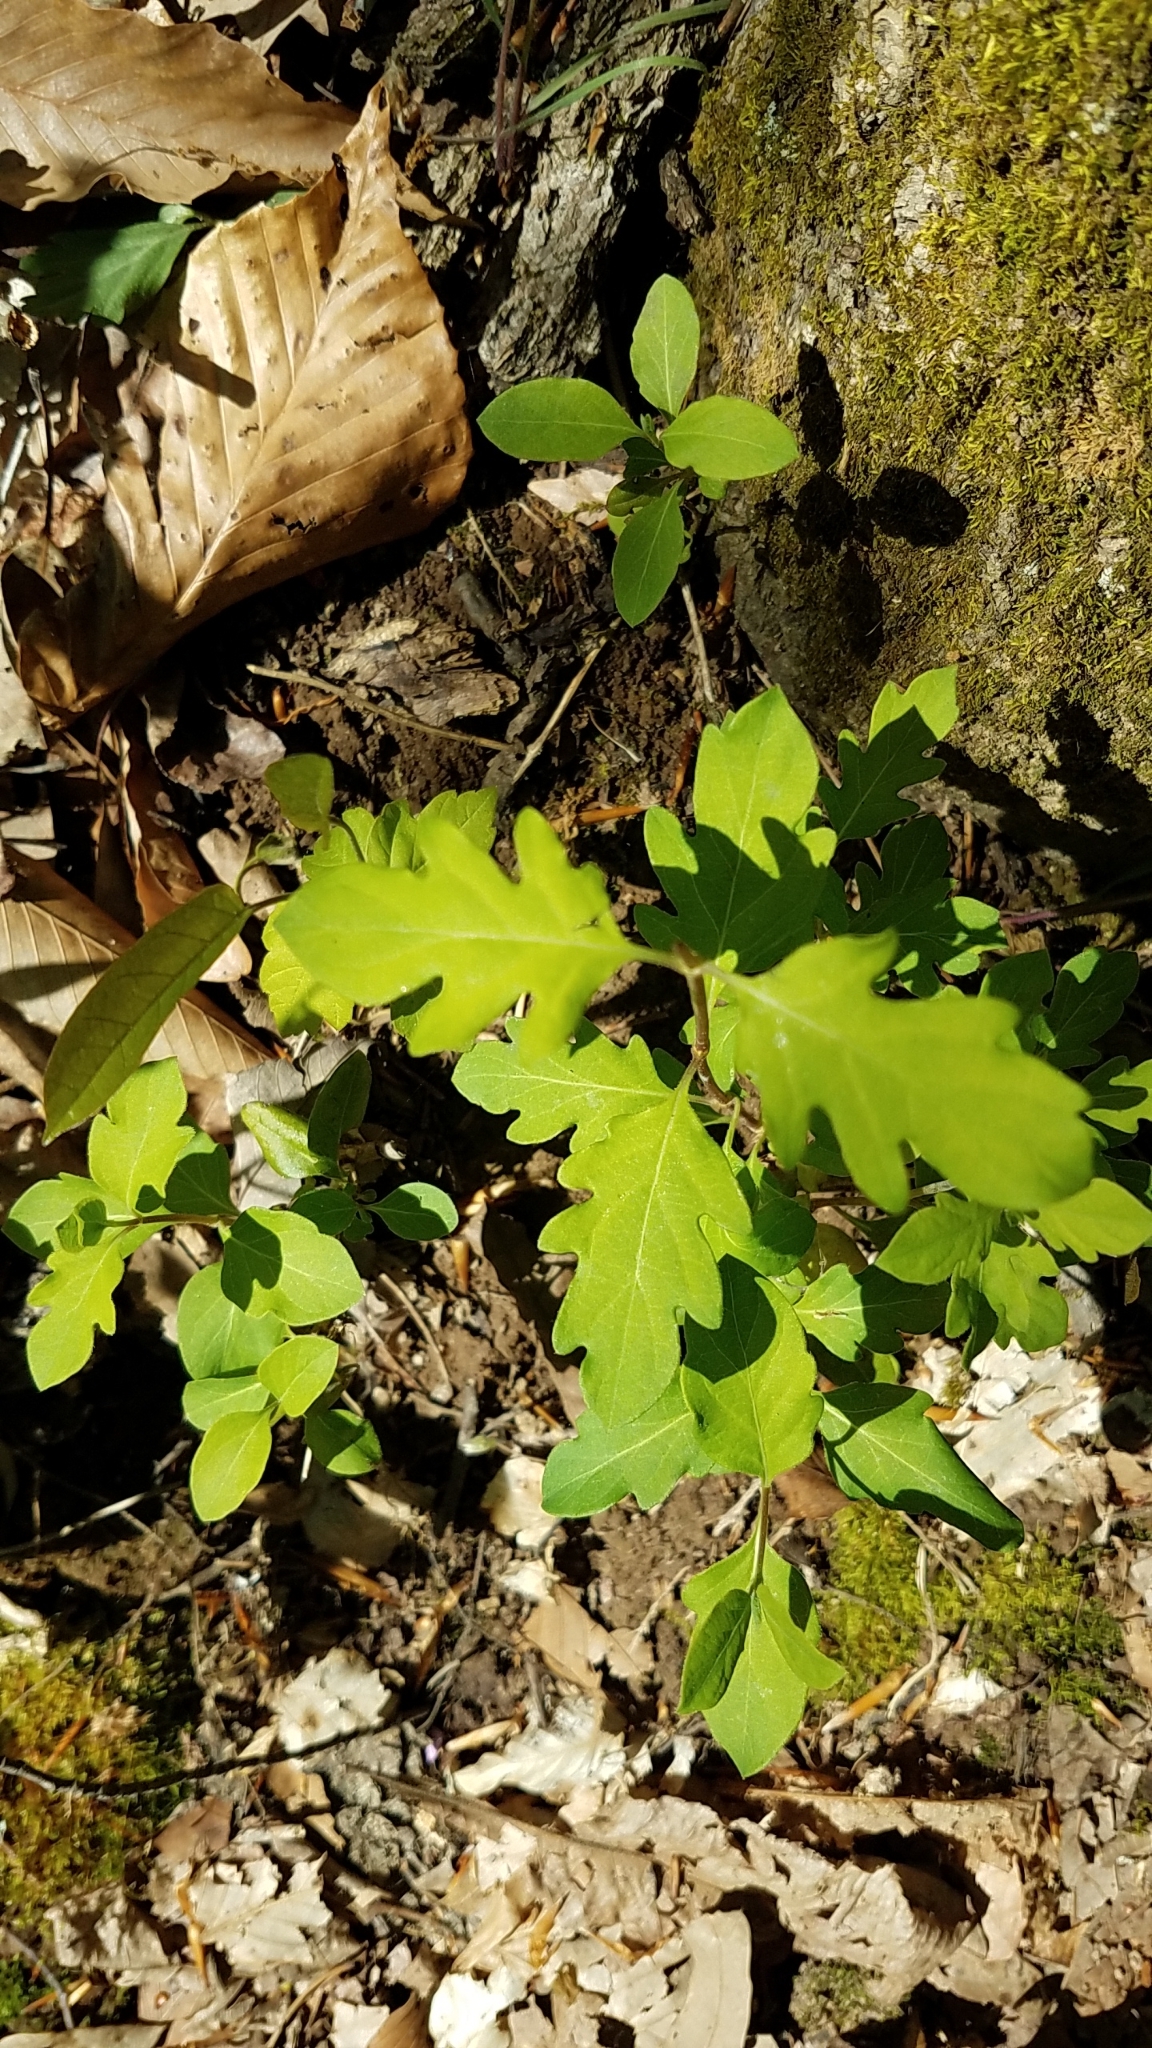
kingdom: Plantae
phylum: Tracheophyta
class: Magnoliopsida
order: Fagales
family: Fagaceae
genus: Quercus
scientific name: Quercus alba
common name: White oak
